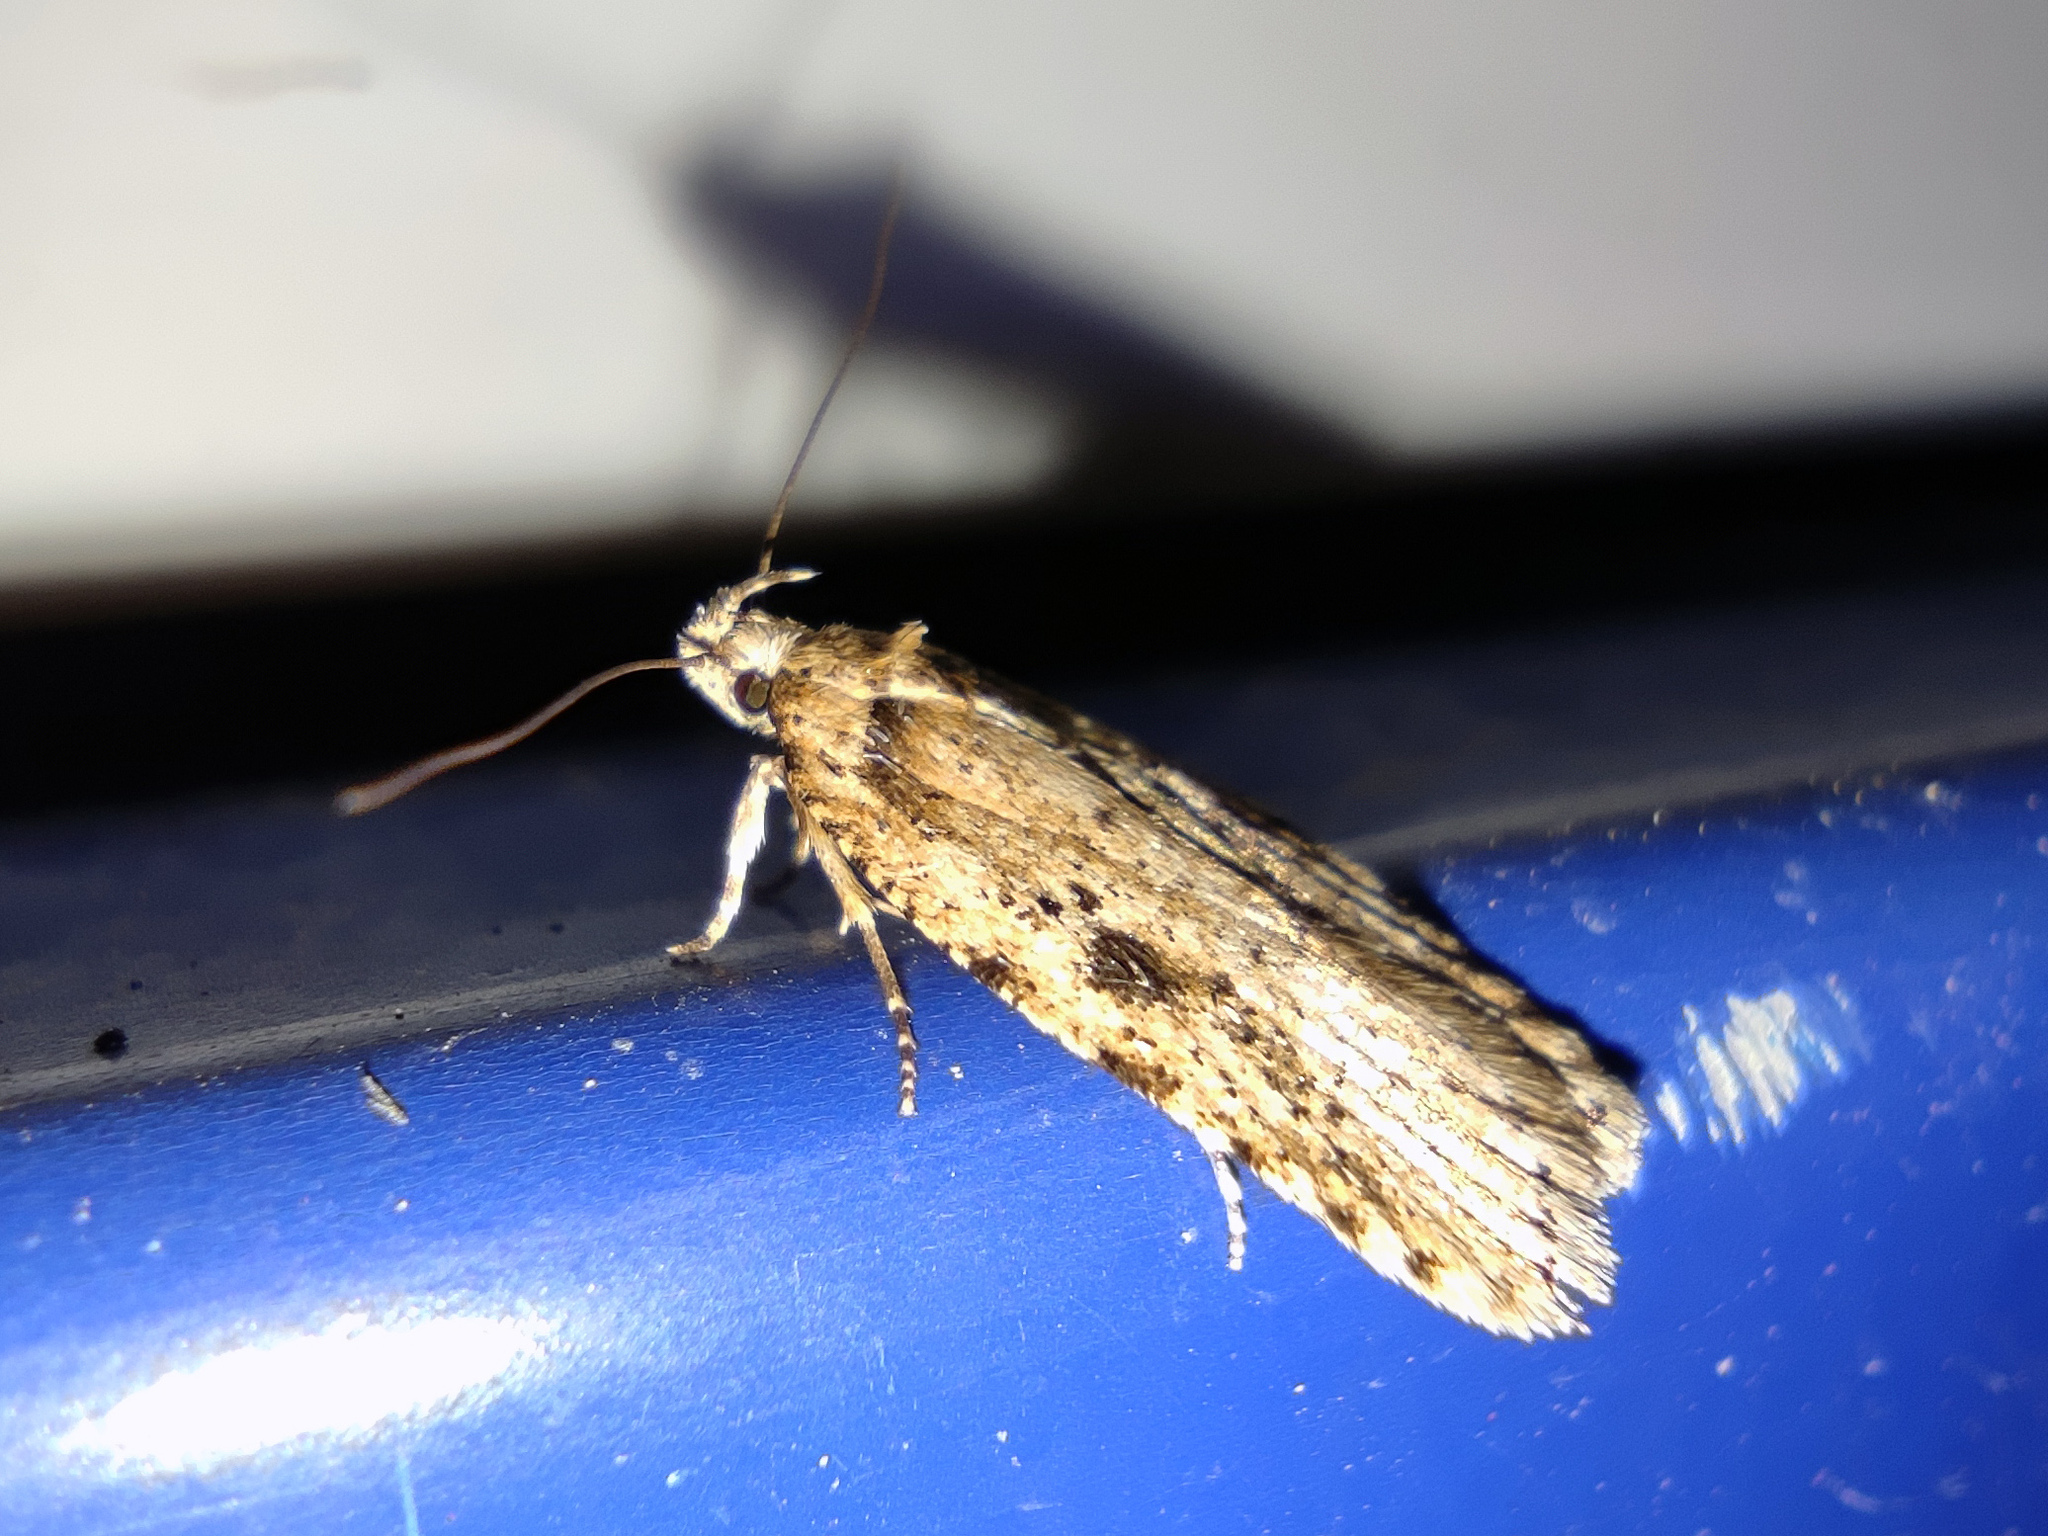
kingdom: Animalia
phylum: Arthropoda
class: Insecta
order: Lepidoptera
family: Depressariidae
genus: Agonopterix
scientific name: Agonopterix arenella
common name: Brindled flat-body
